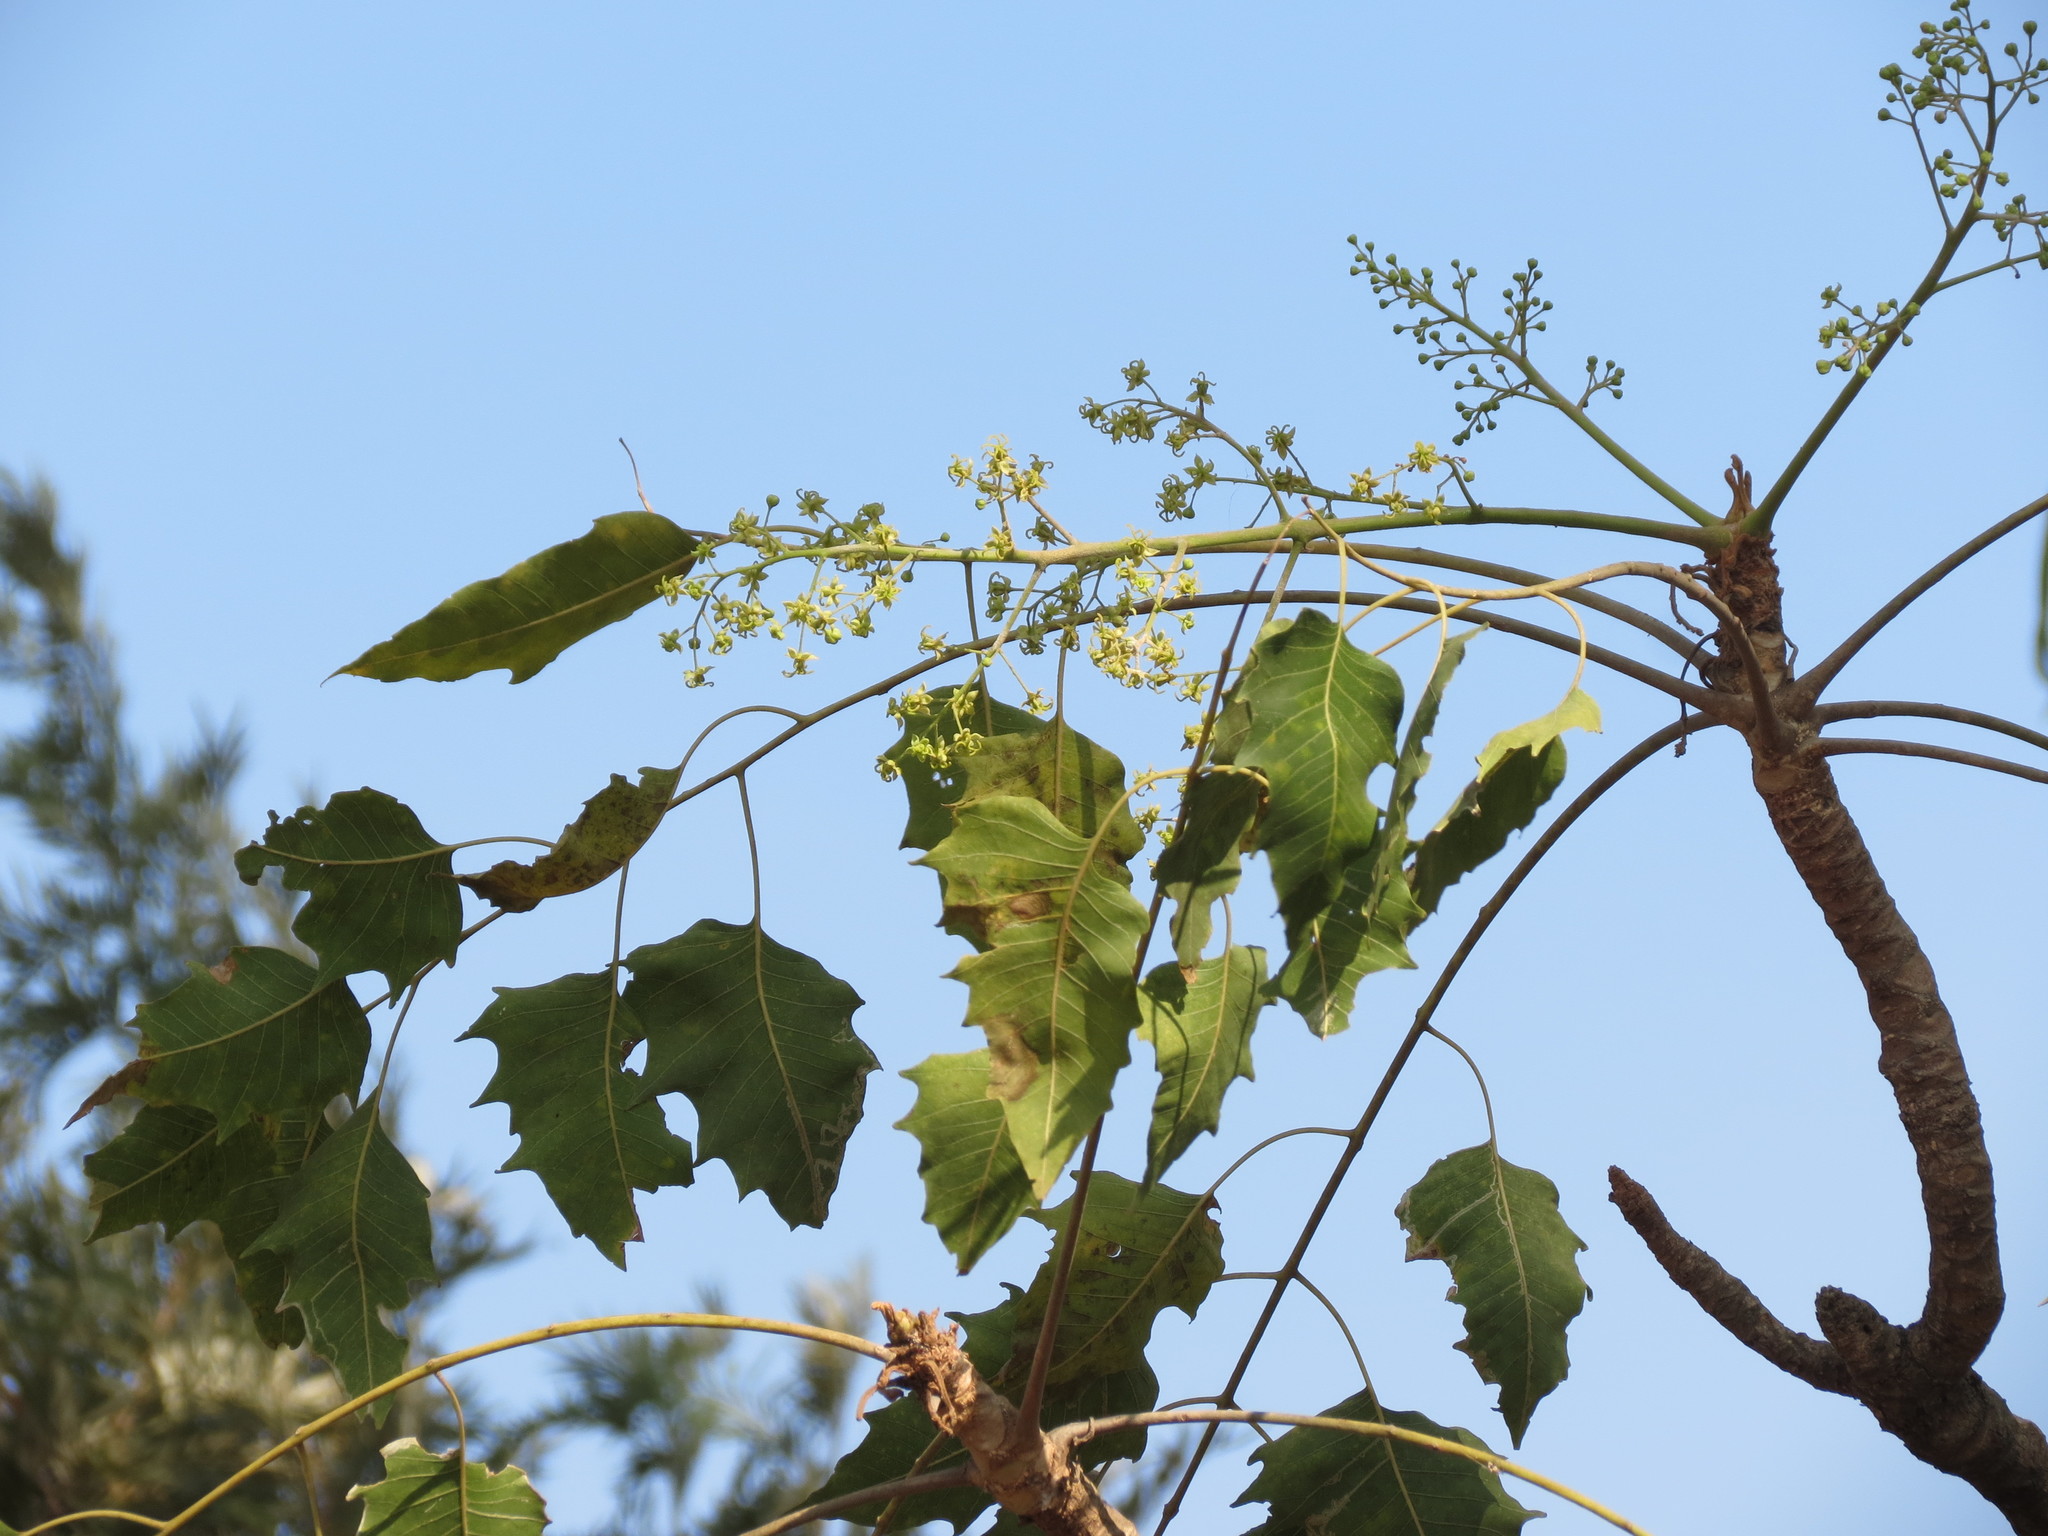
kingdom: Plantae
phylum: Tracheophyta
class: Magnoliopsida
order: Sapindales
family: Simaroubaceae
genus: Ailanthus
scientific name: Ailanthus excelsa
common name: Indian tree-of-heaven
